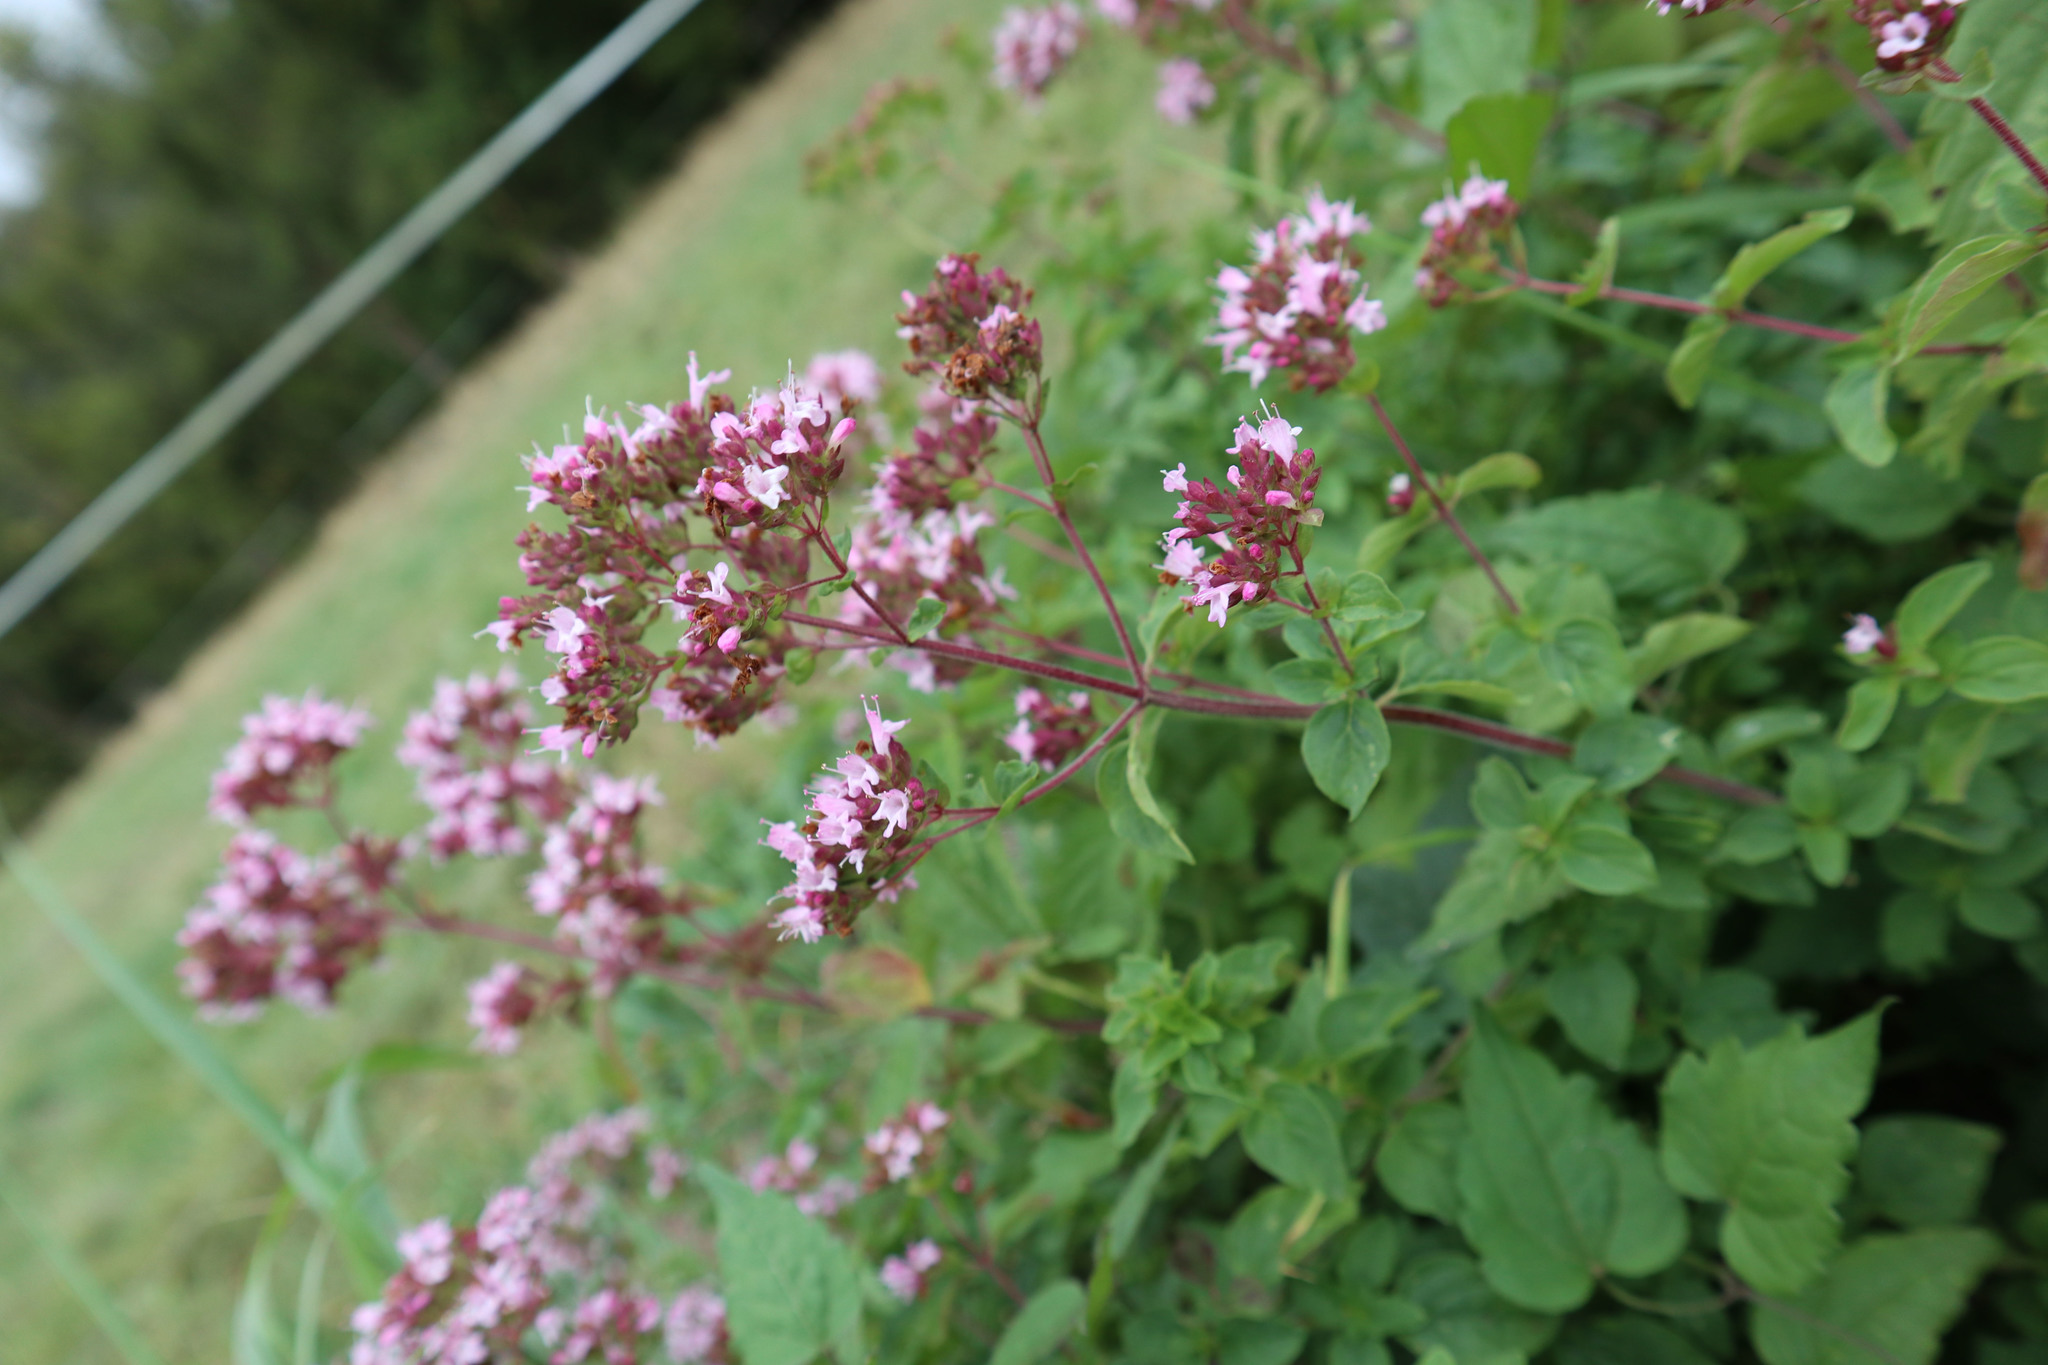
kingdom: Plantae
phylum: Tracheophyta
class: Magnoliopsida
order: Lamiales
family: Lamiaceae
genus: Origanum
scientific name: Origanum vulgare
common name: Wild marjoram
